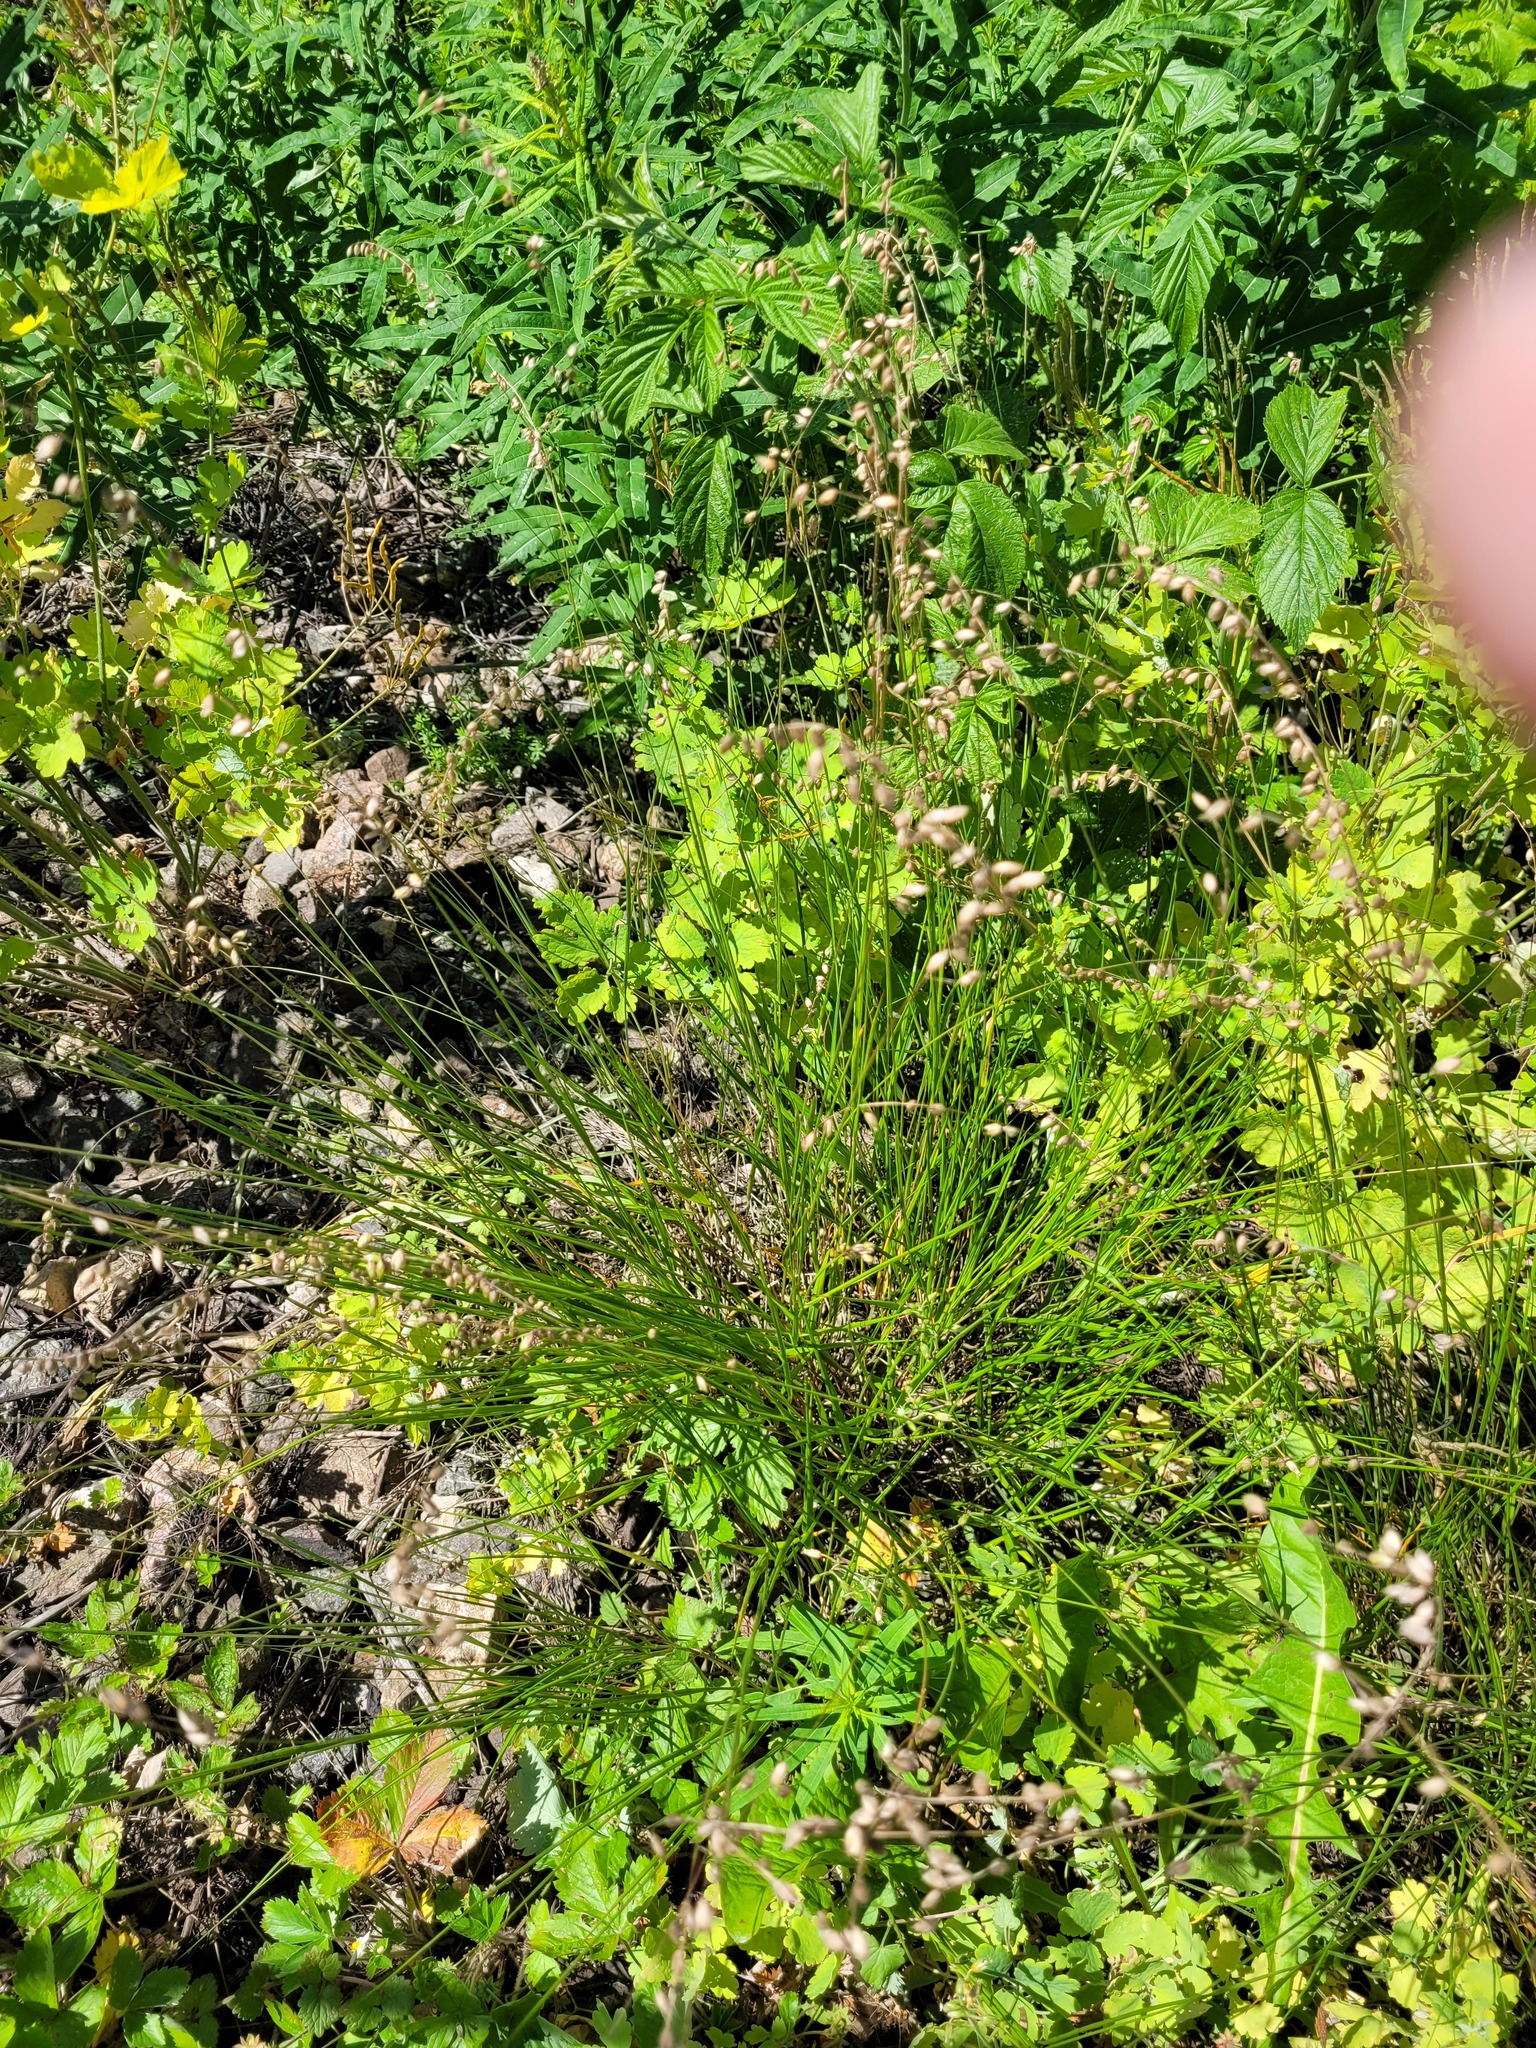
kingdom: Plantae
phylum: Tracheophyta
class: Liliopsida
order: Poales
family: Poaceae
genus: Melica
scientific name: Melica nutans
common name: Mountain melick
